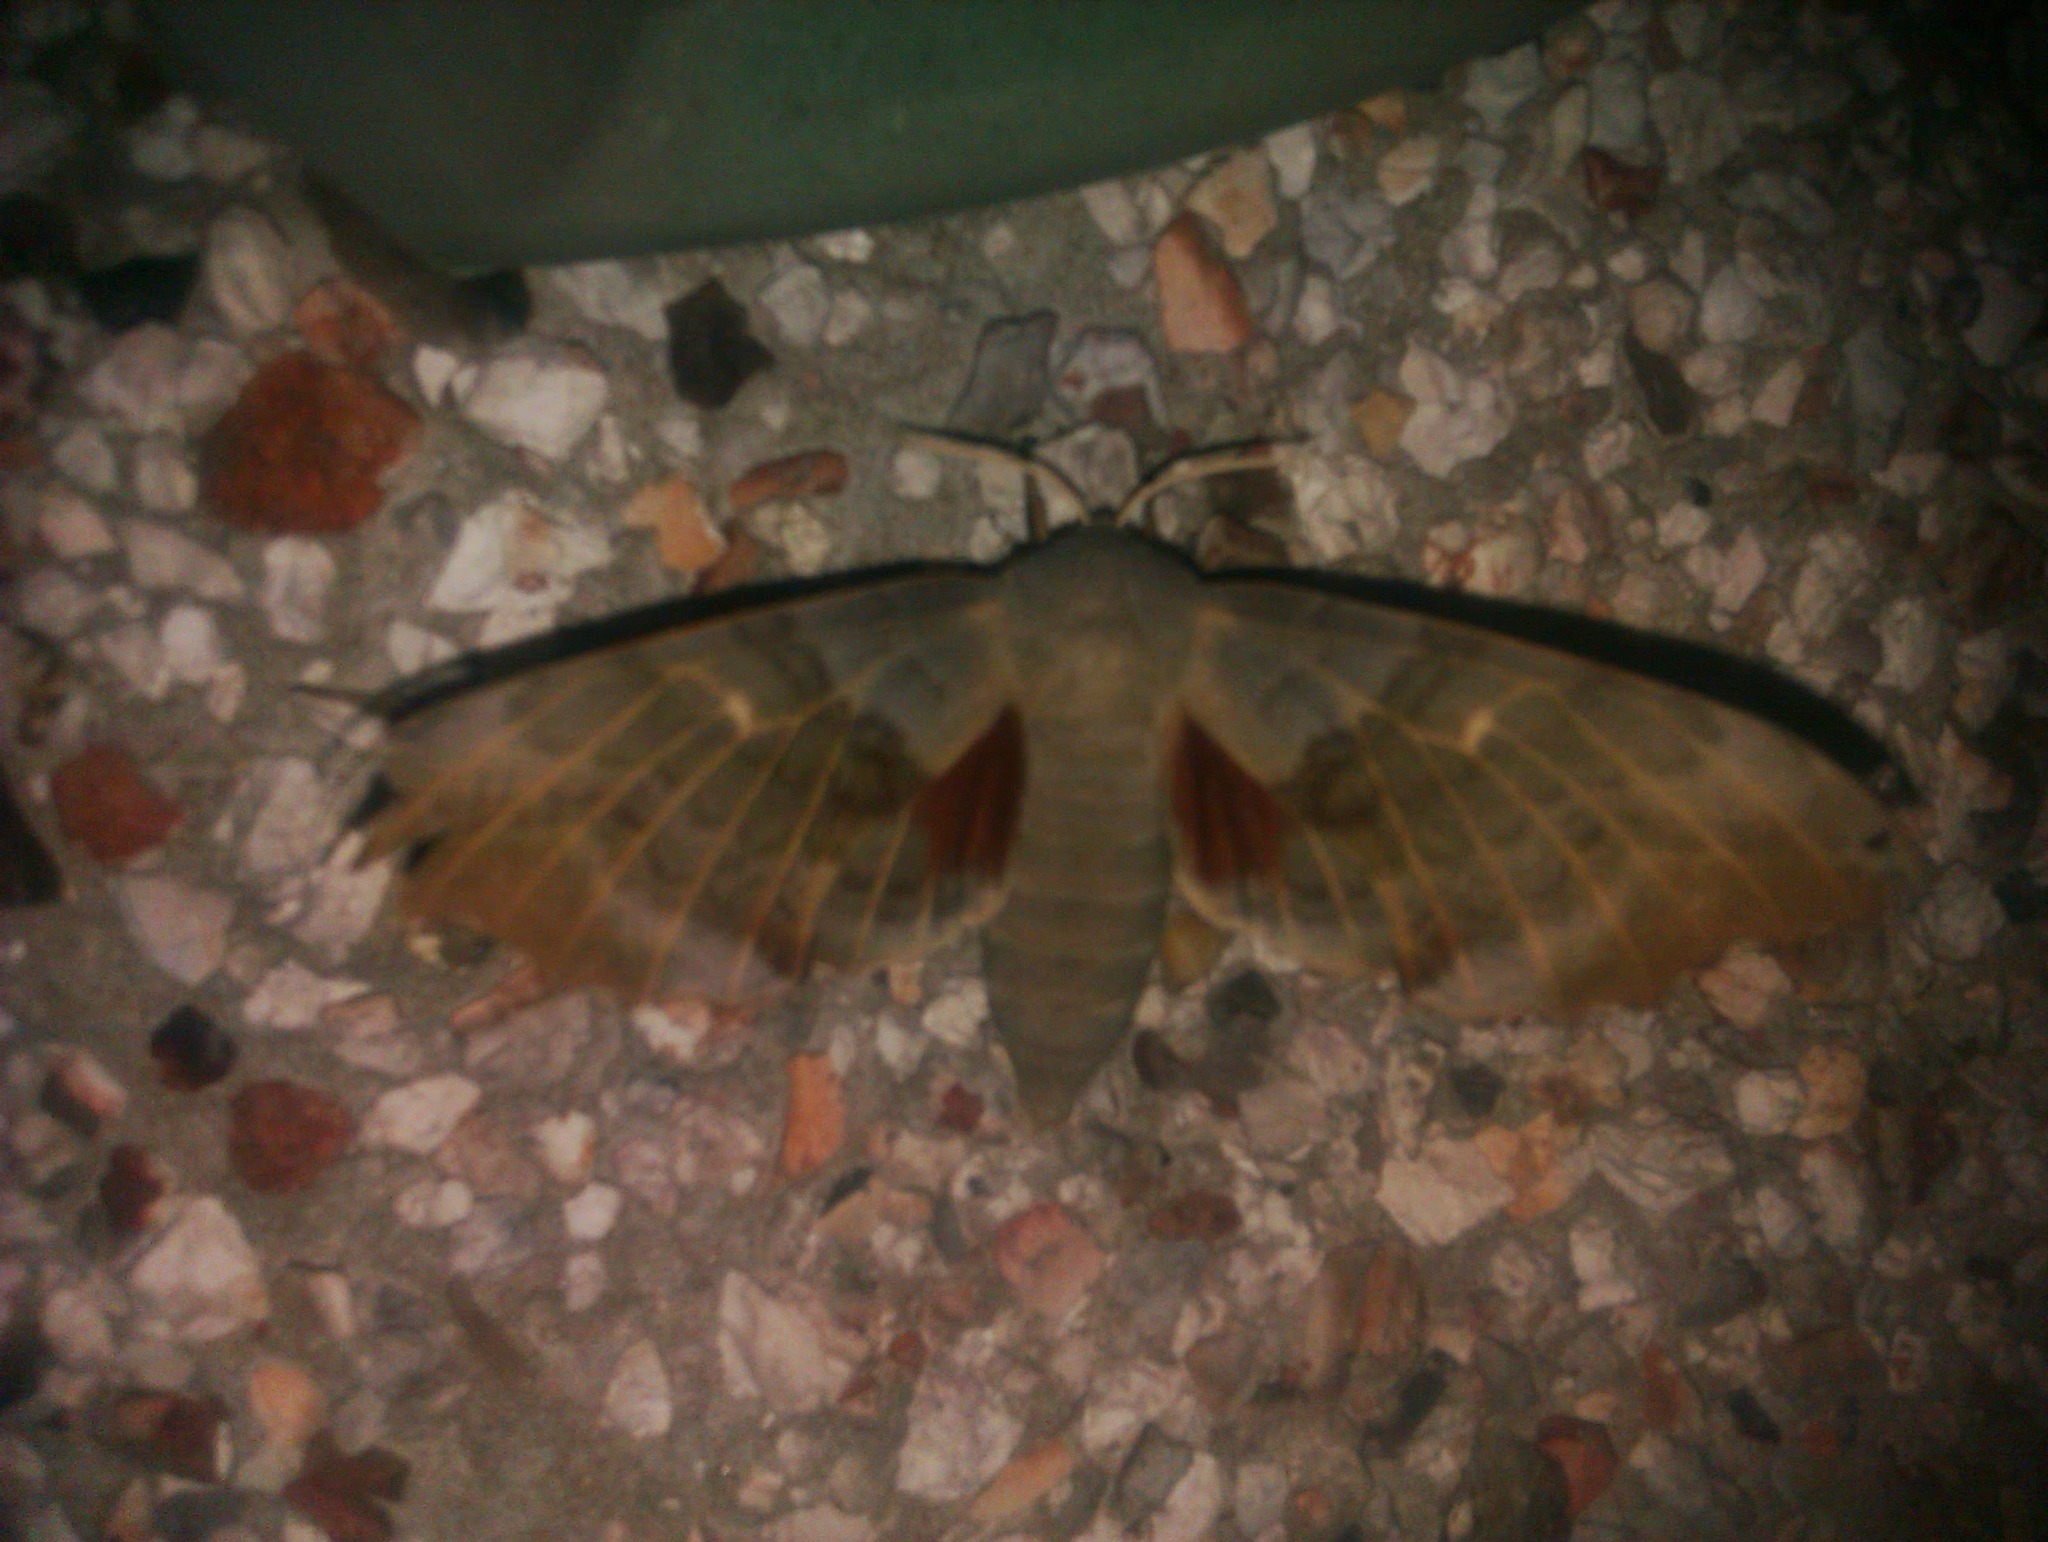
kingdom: Animalia
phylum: Arthropoda
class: Insecta
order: Lepidoptera
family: Sphingidae
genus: Laothoe
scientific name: Laothoe populi
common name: Poplar hawk-moth
